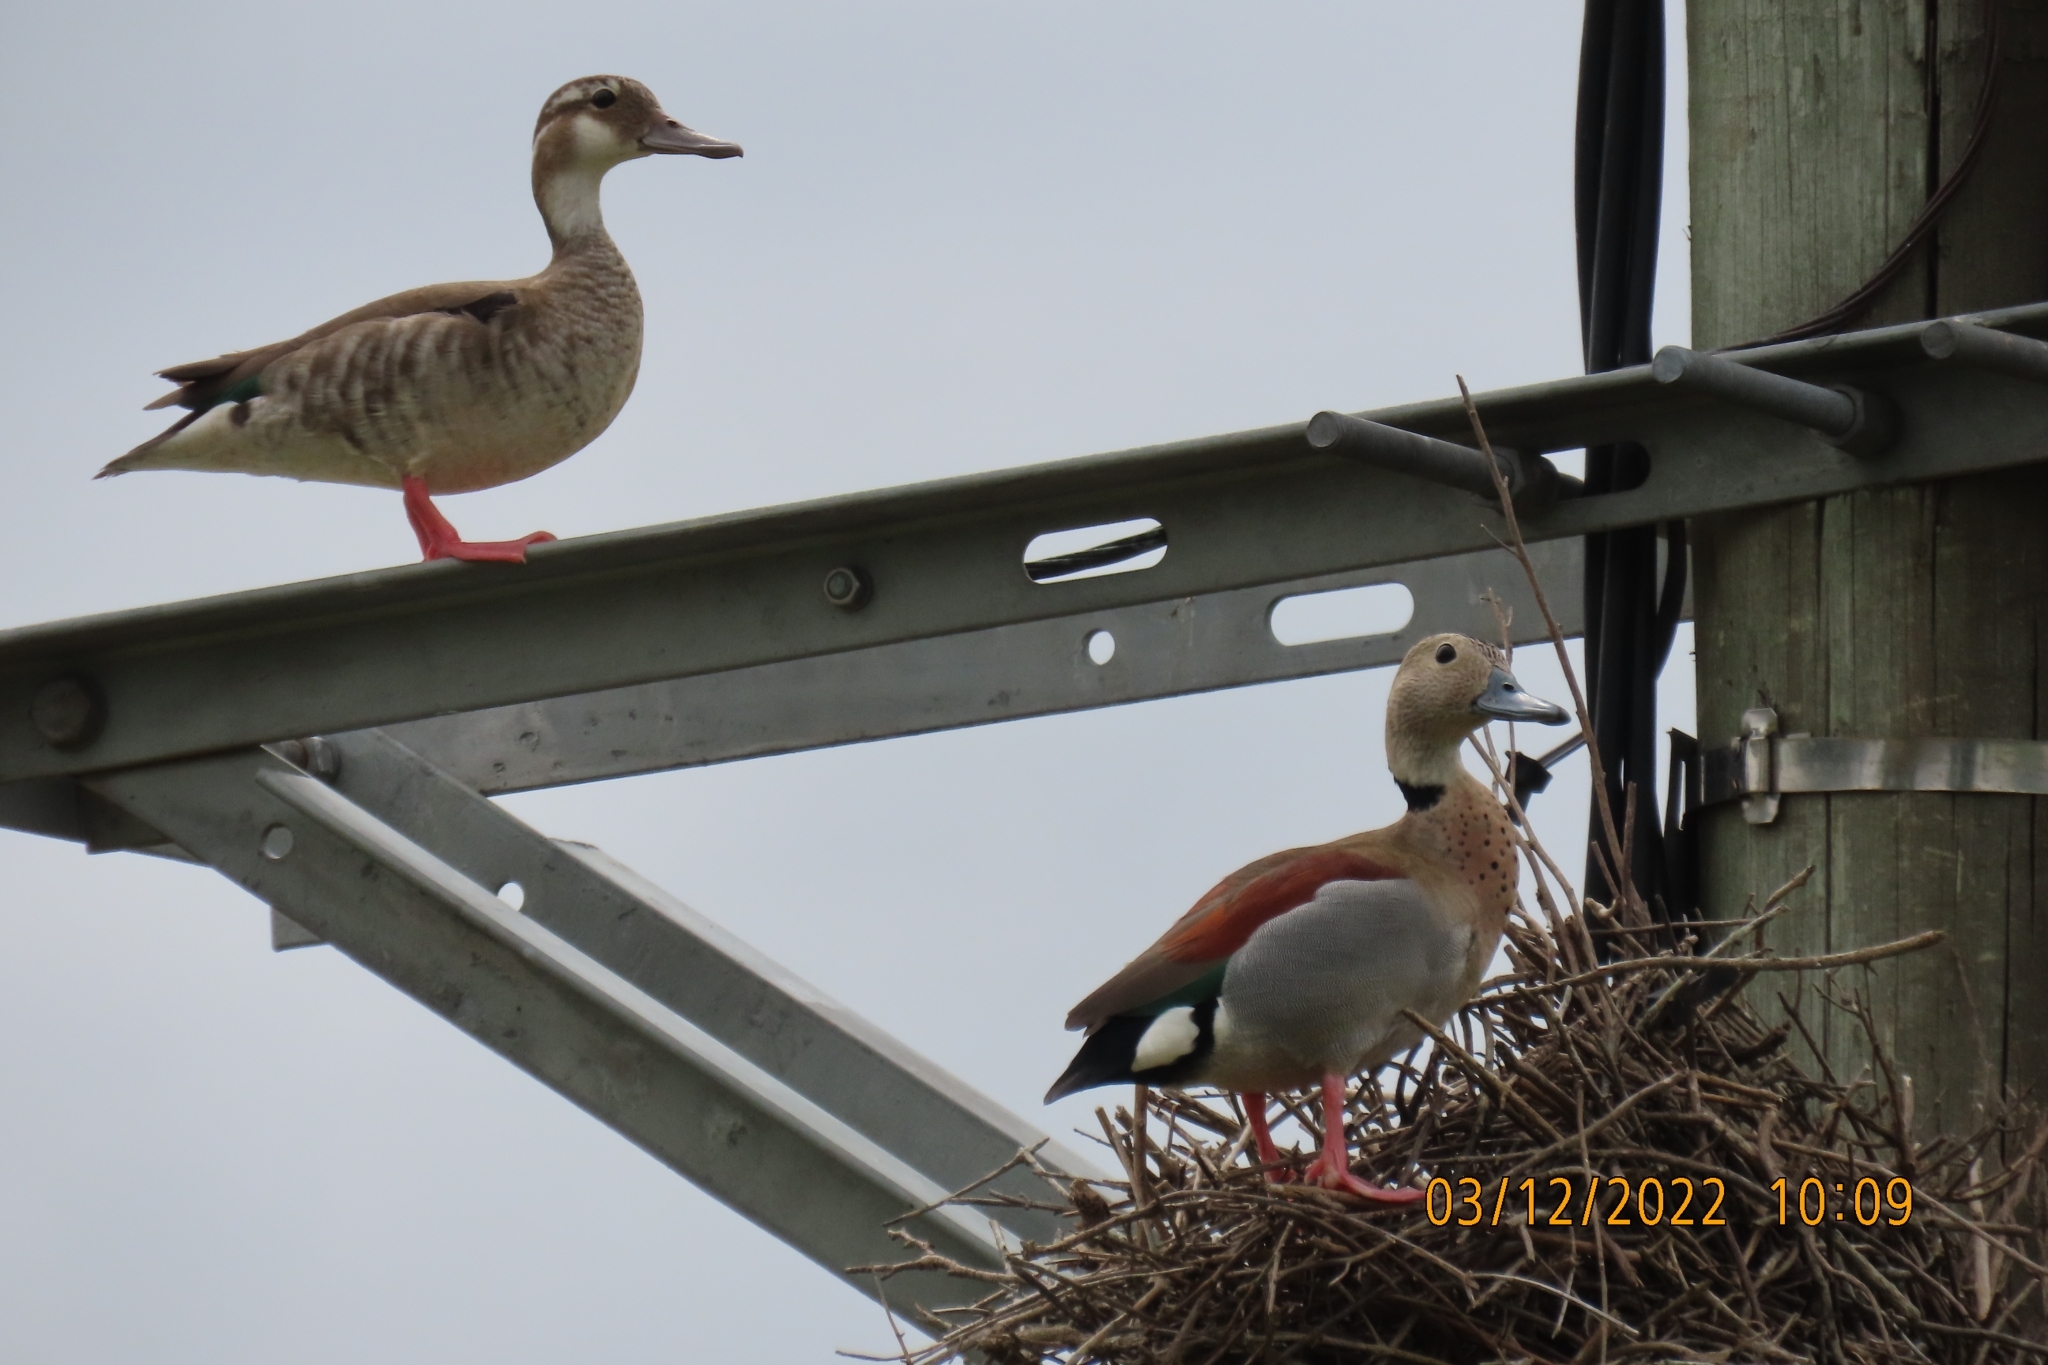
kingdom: Animalia
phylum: Chordata
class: Aves
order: Anseriformes
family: Anatidae
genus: Callonetta
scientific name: Callonetta leucophrys
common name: Ringed teal
